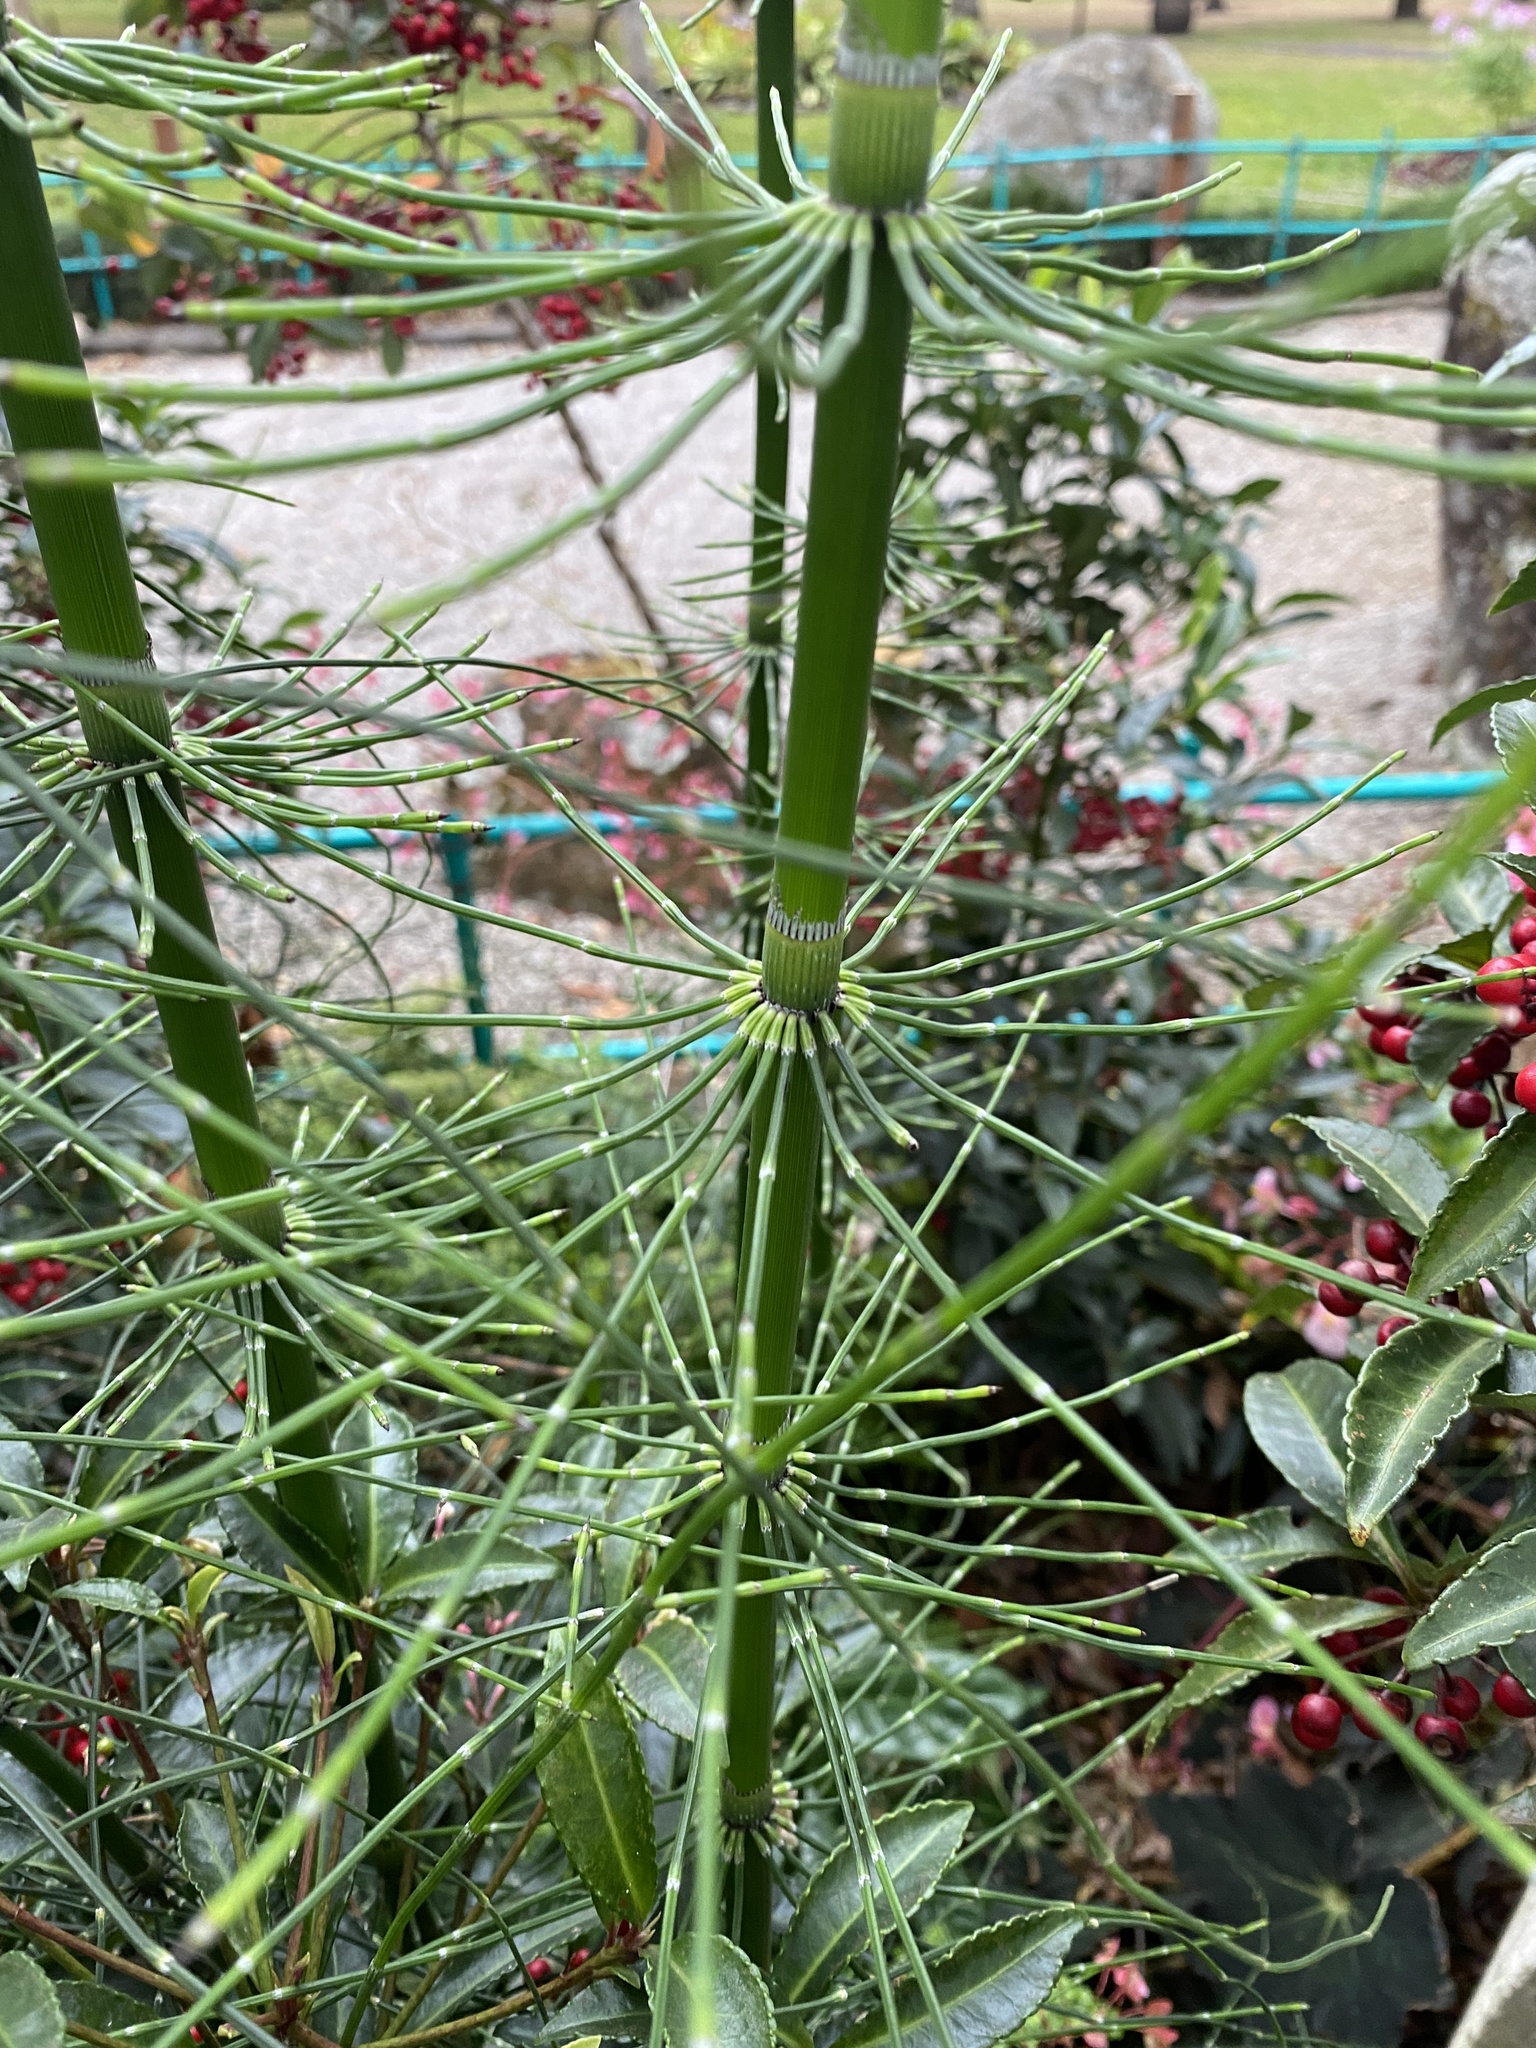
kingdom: Plantae
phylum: Tracheophyta
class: Polypodiopsida
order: Equisetales
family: Equisetaceae
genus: Equisetum
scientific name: Equisetum giganteum
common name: Giant horsetail
